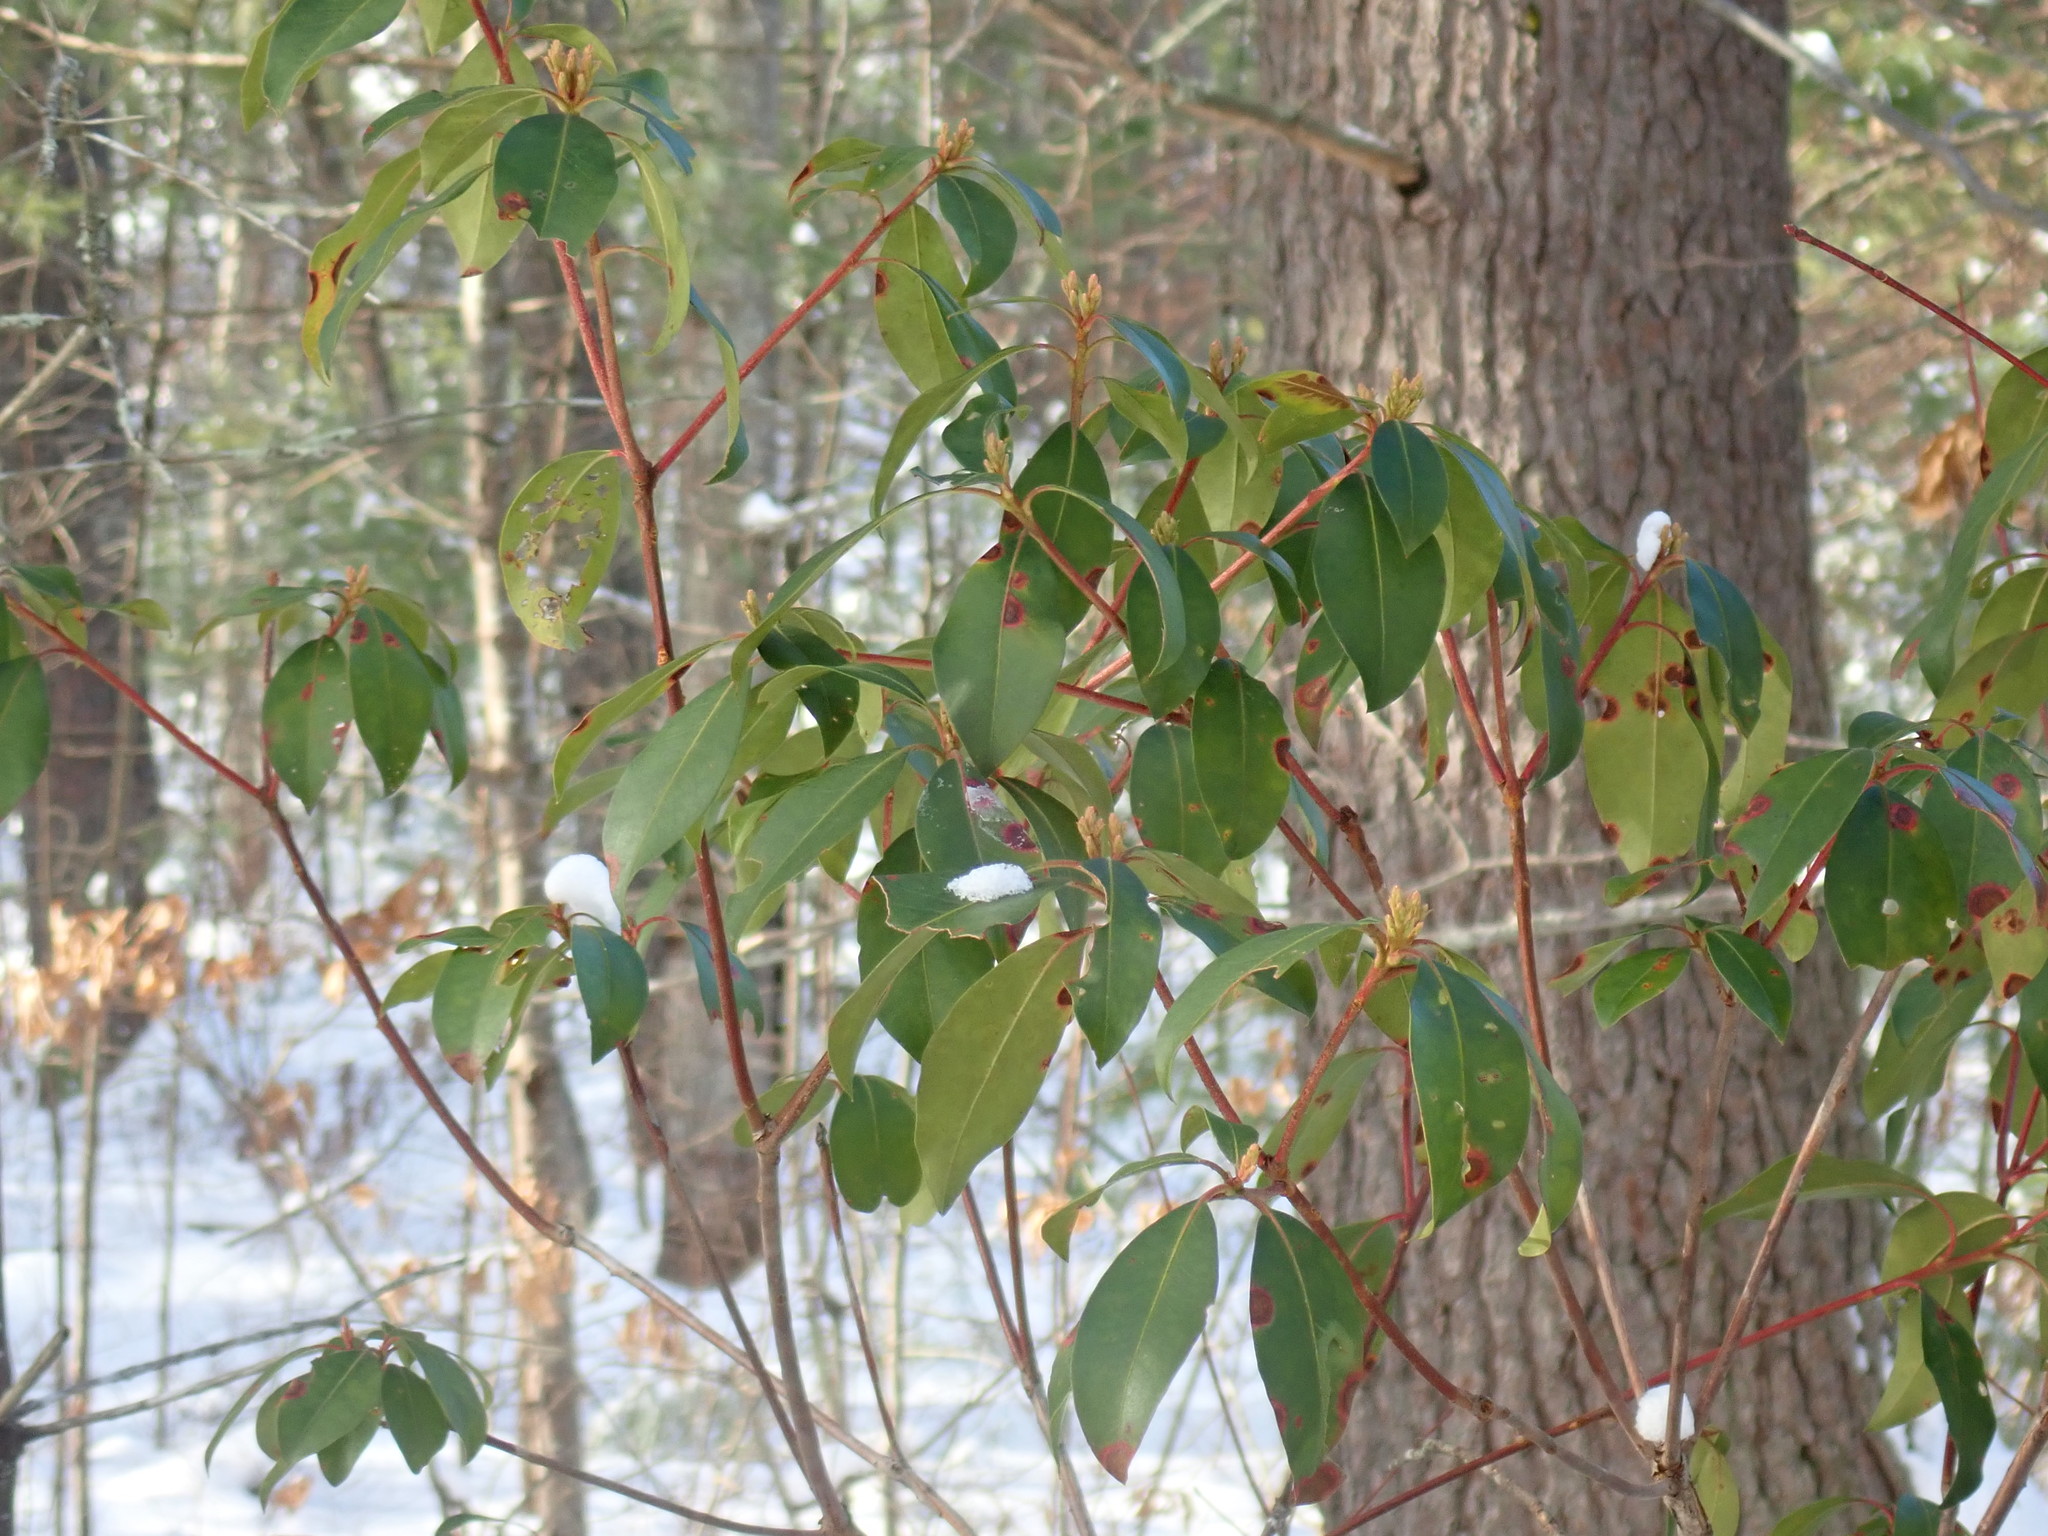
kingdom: Plantae
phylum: Tracheophyta
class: Magnoliopsida
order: Ericales
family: Ericaceae
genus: Kalmia
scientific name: Kalmia latifolia
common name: Mountain-laurel
